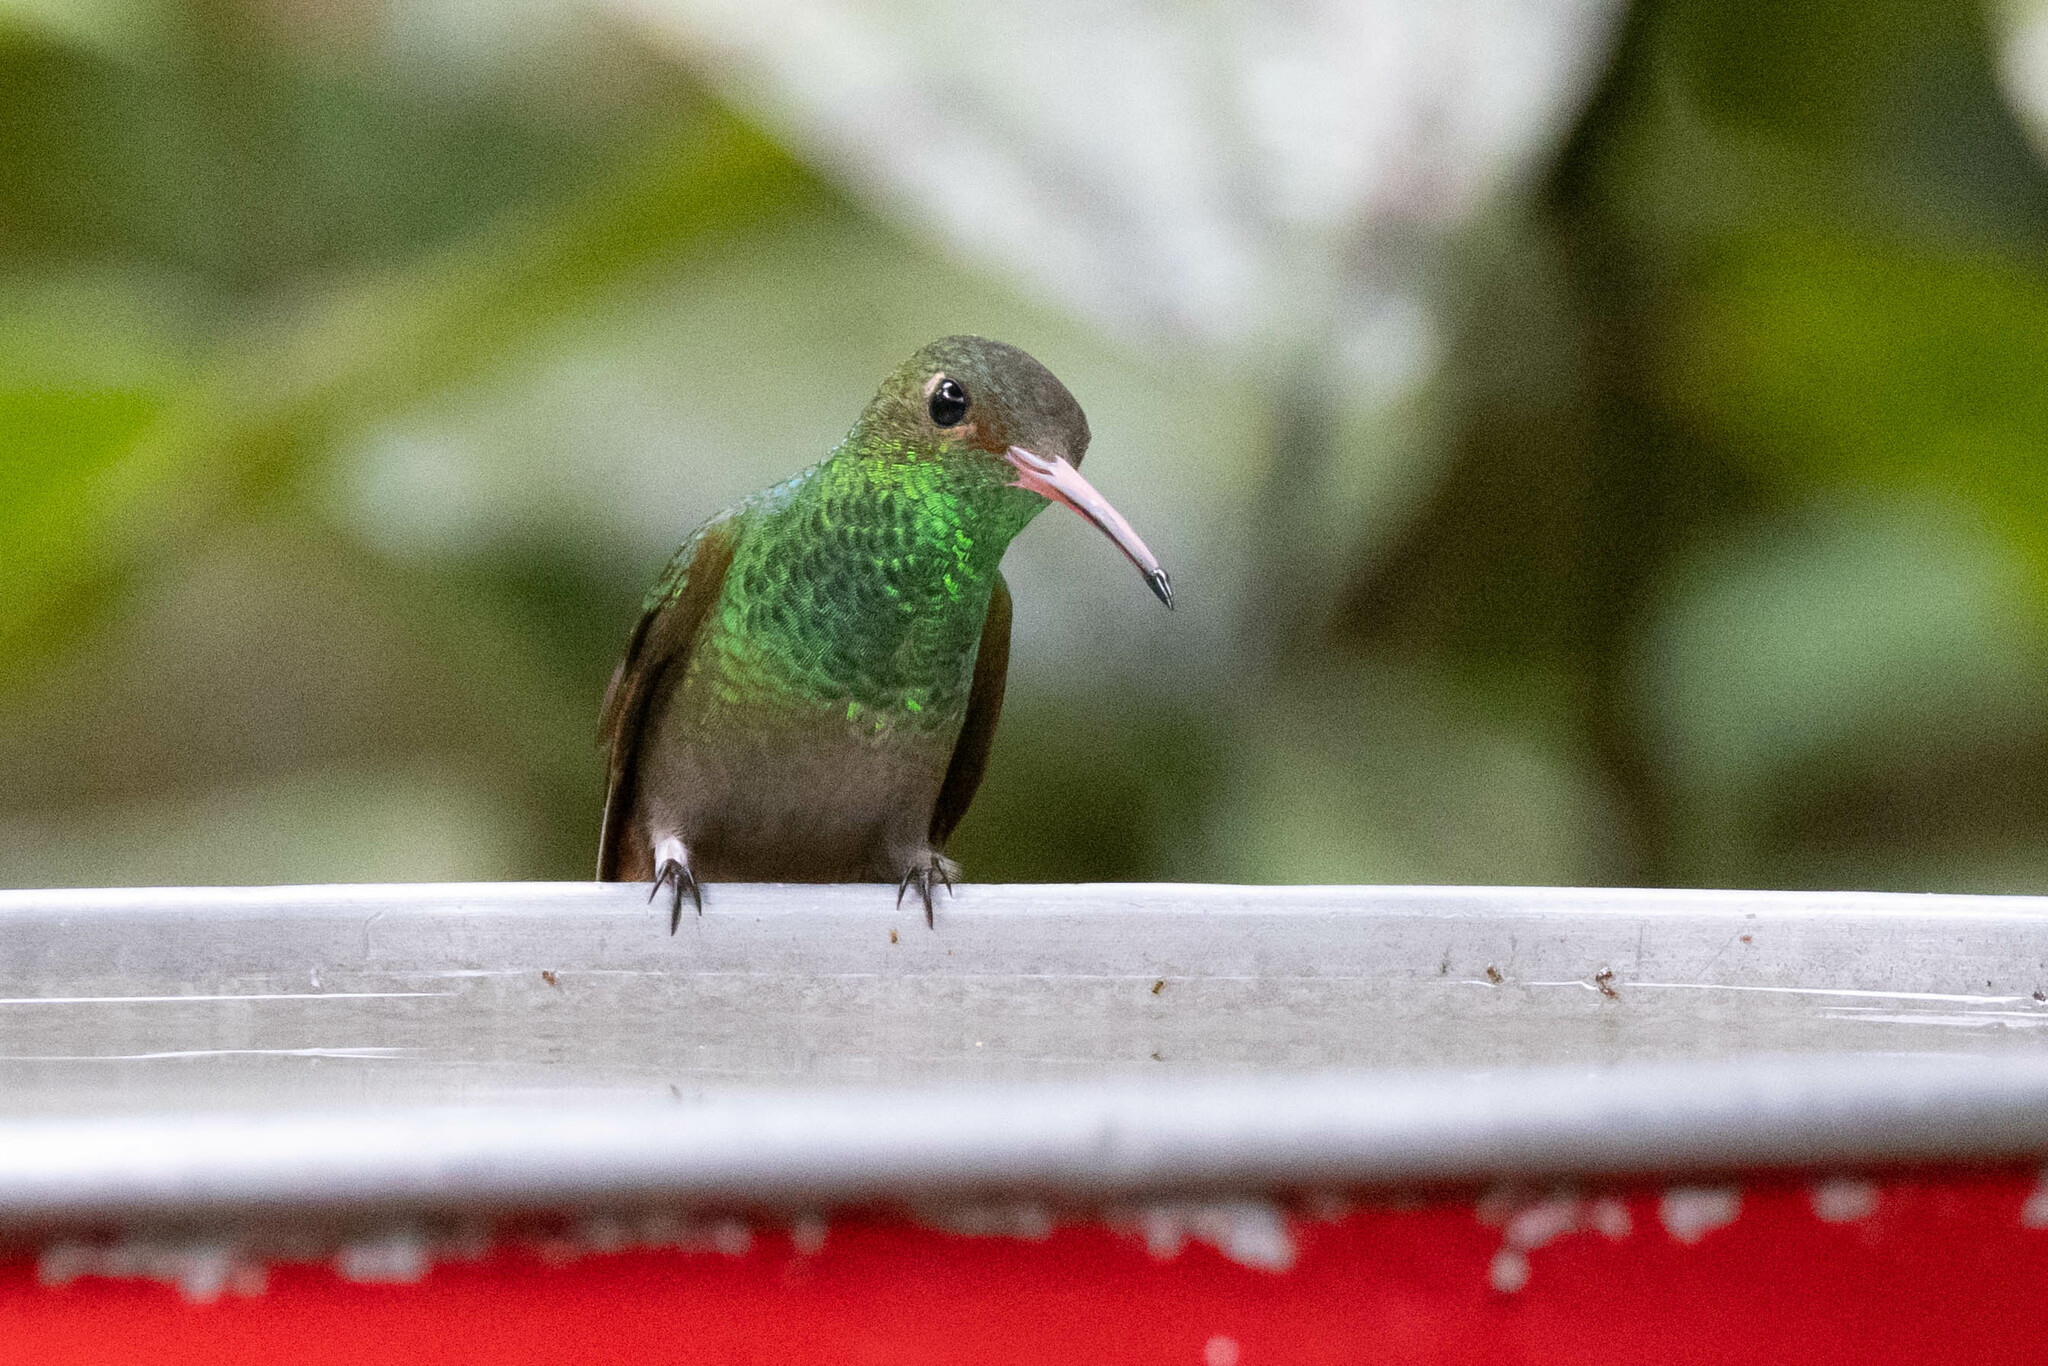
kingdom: Animalia
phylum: Chordata
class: Aves
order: Apodiformes
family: Trochilidae
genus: Amazilia
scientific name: Amazilia tzacatl
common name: Rufous-tailed hummingbird
